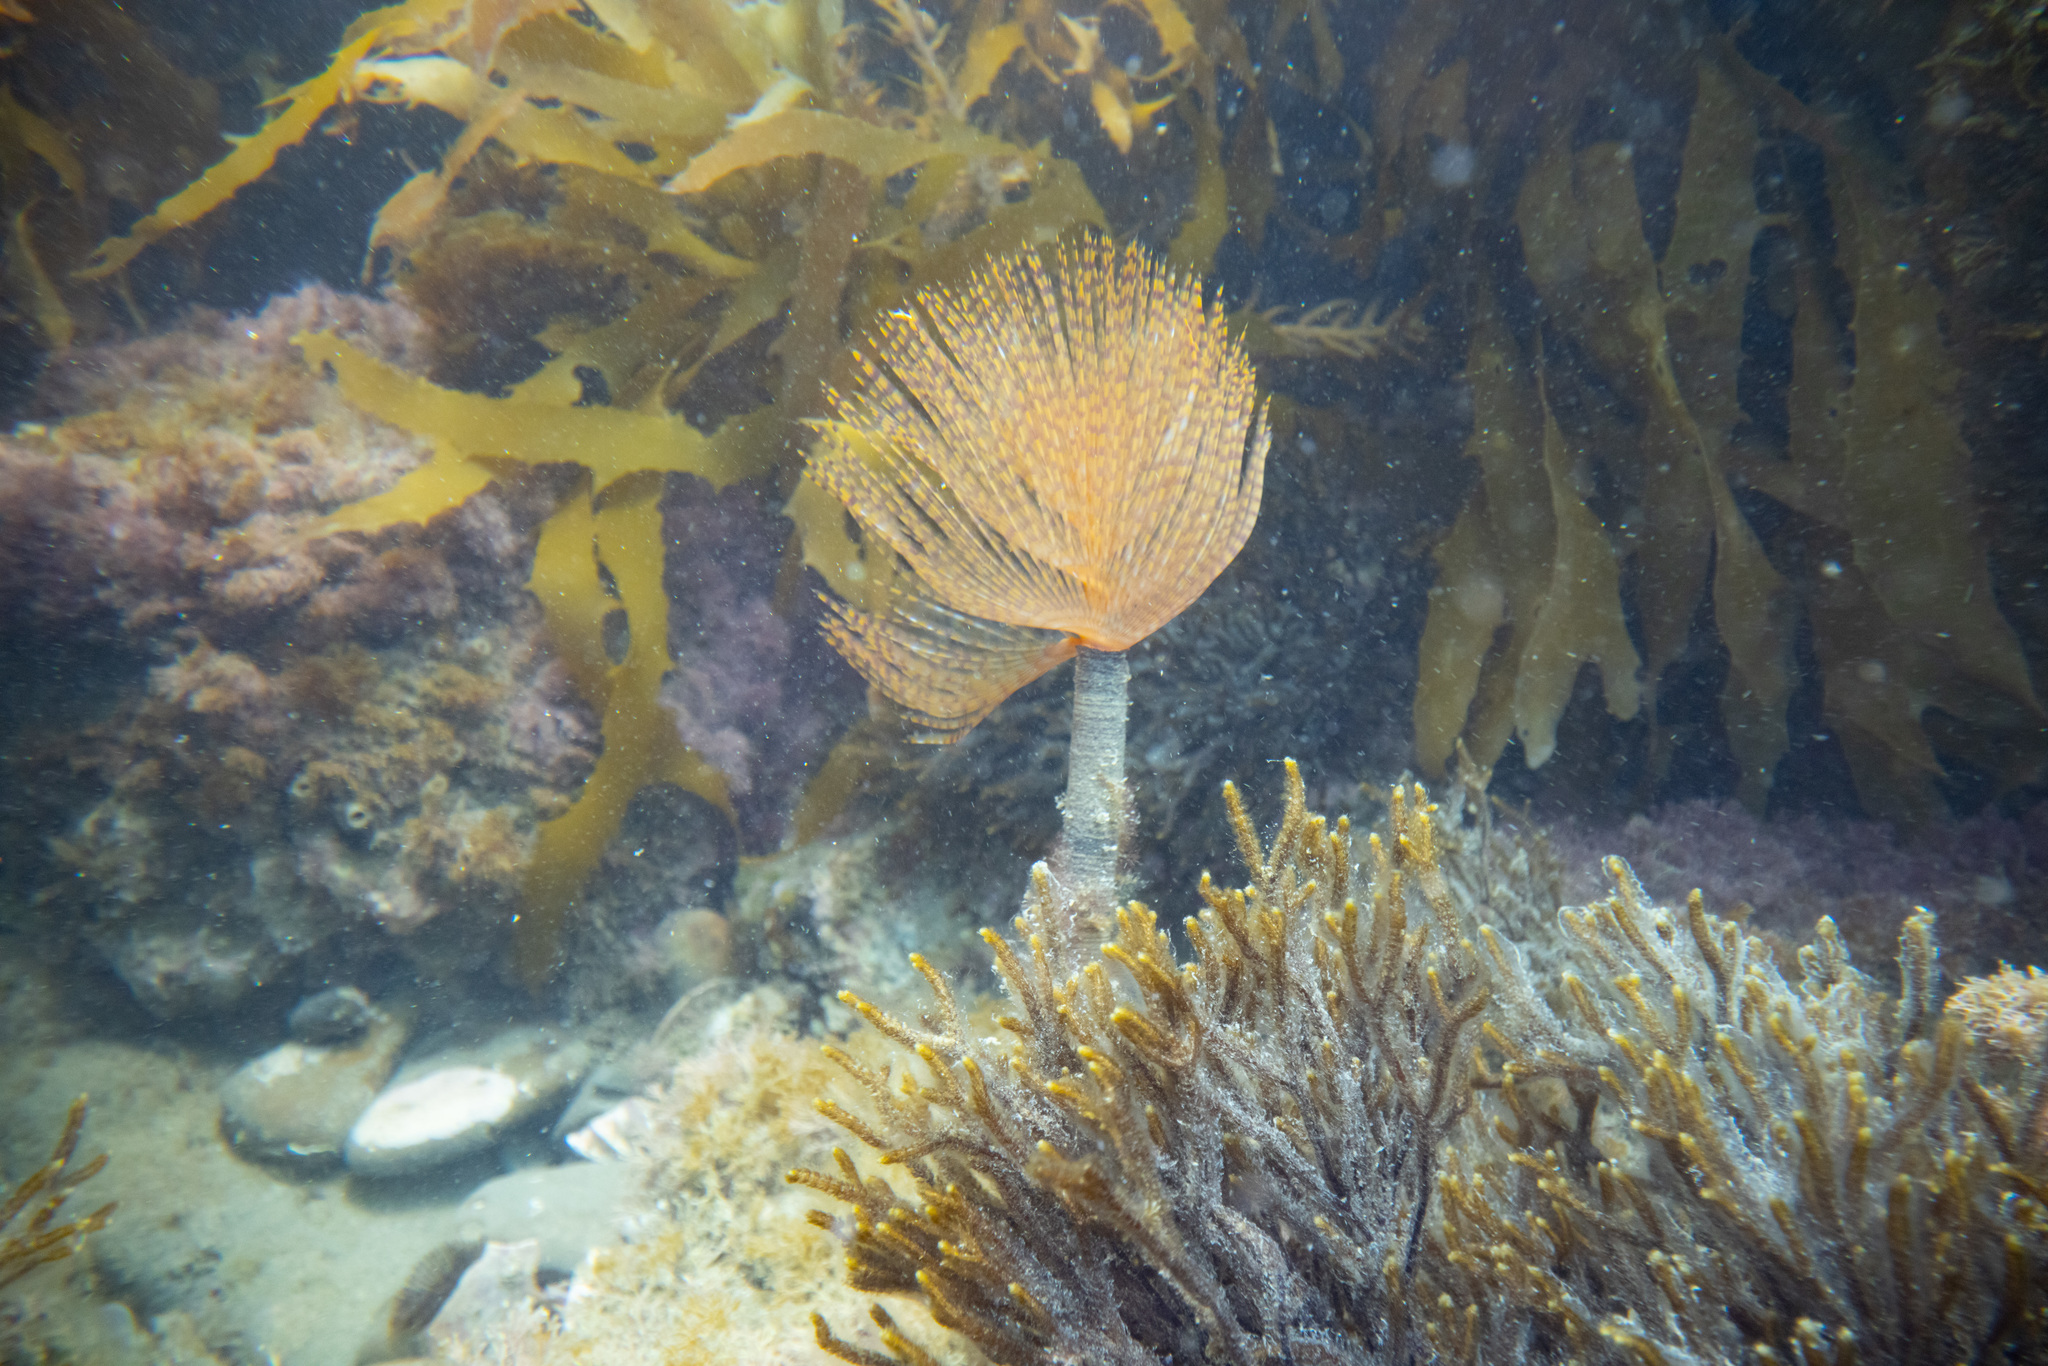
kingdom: Animalia
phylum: Annelida
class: Polychaeta
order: Sabellida
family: Sabellidae
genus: Sabella
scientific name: Sabella spallanzanii
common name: Feather duster worm
